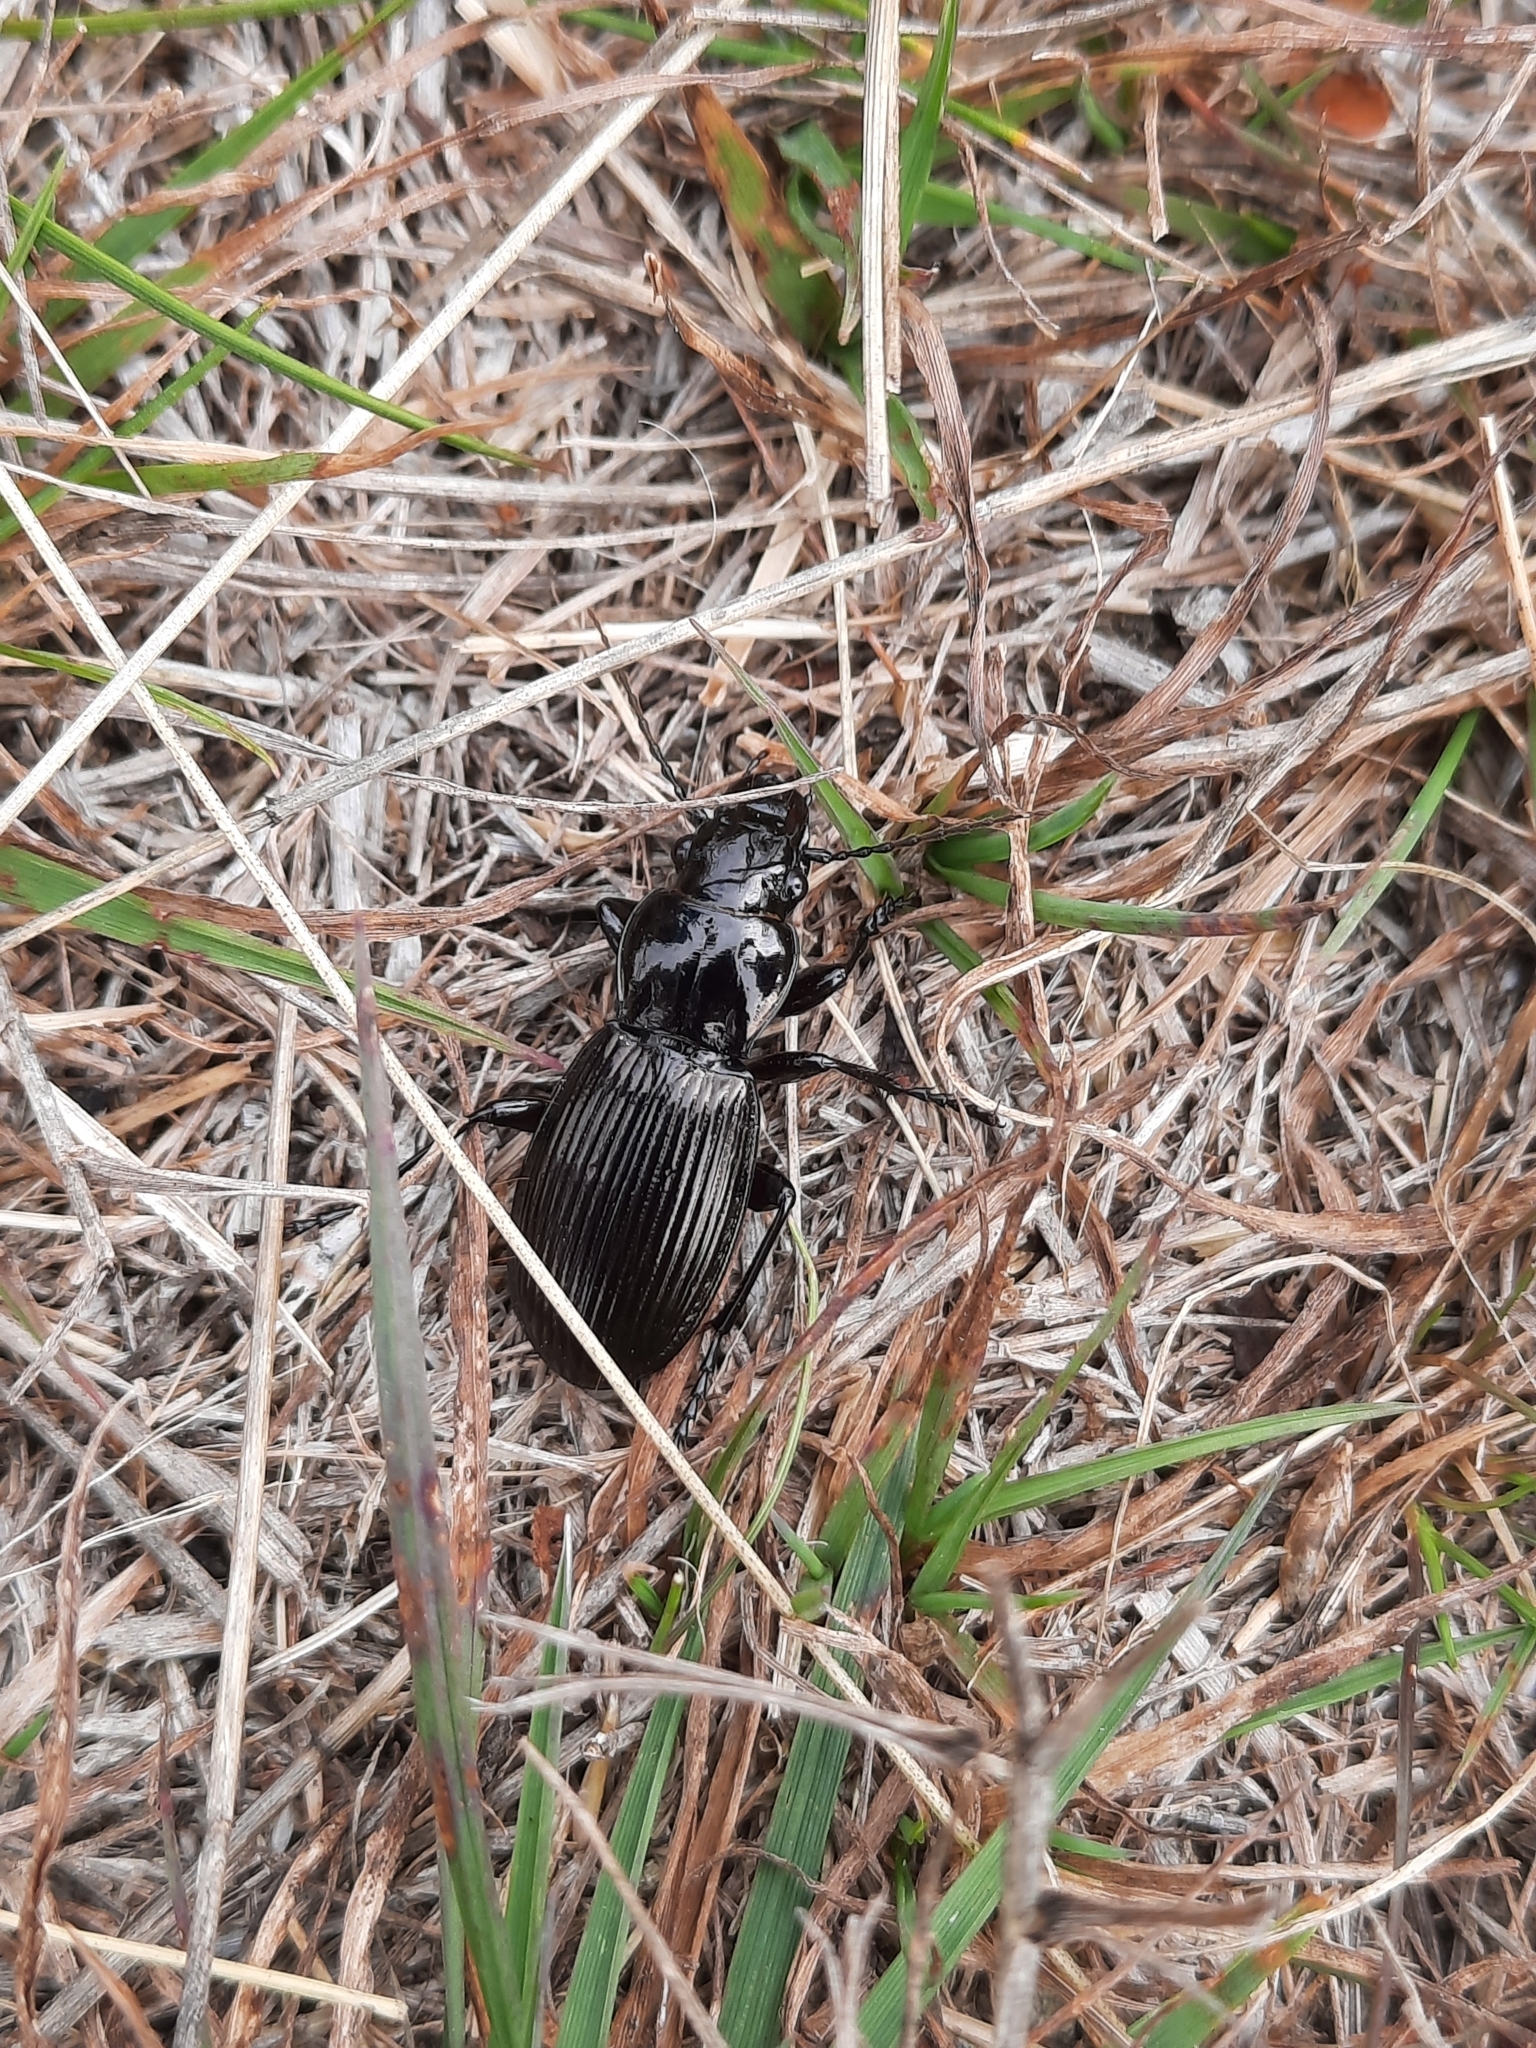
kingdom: Animalia
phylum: Arthropoda
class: Insecta
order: Coleoptera
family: Carabidae
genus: Megadromus
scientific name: Megadromus alternus
